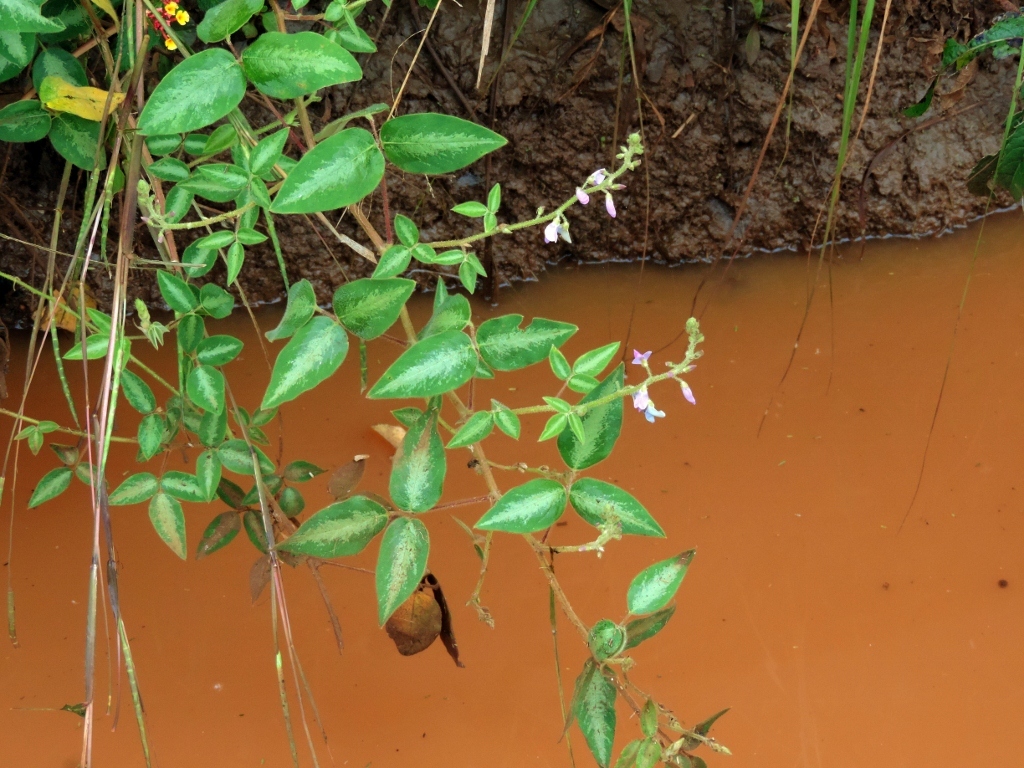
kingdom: Plantae
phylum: Tracheophyta
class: Magnoliopsida
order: Fabales
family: Fabaceae
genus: Desmodium
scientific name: Desmodium uncinatum
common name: Silverleaf desmodium
